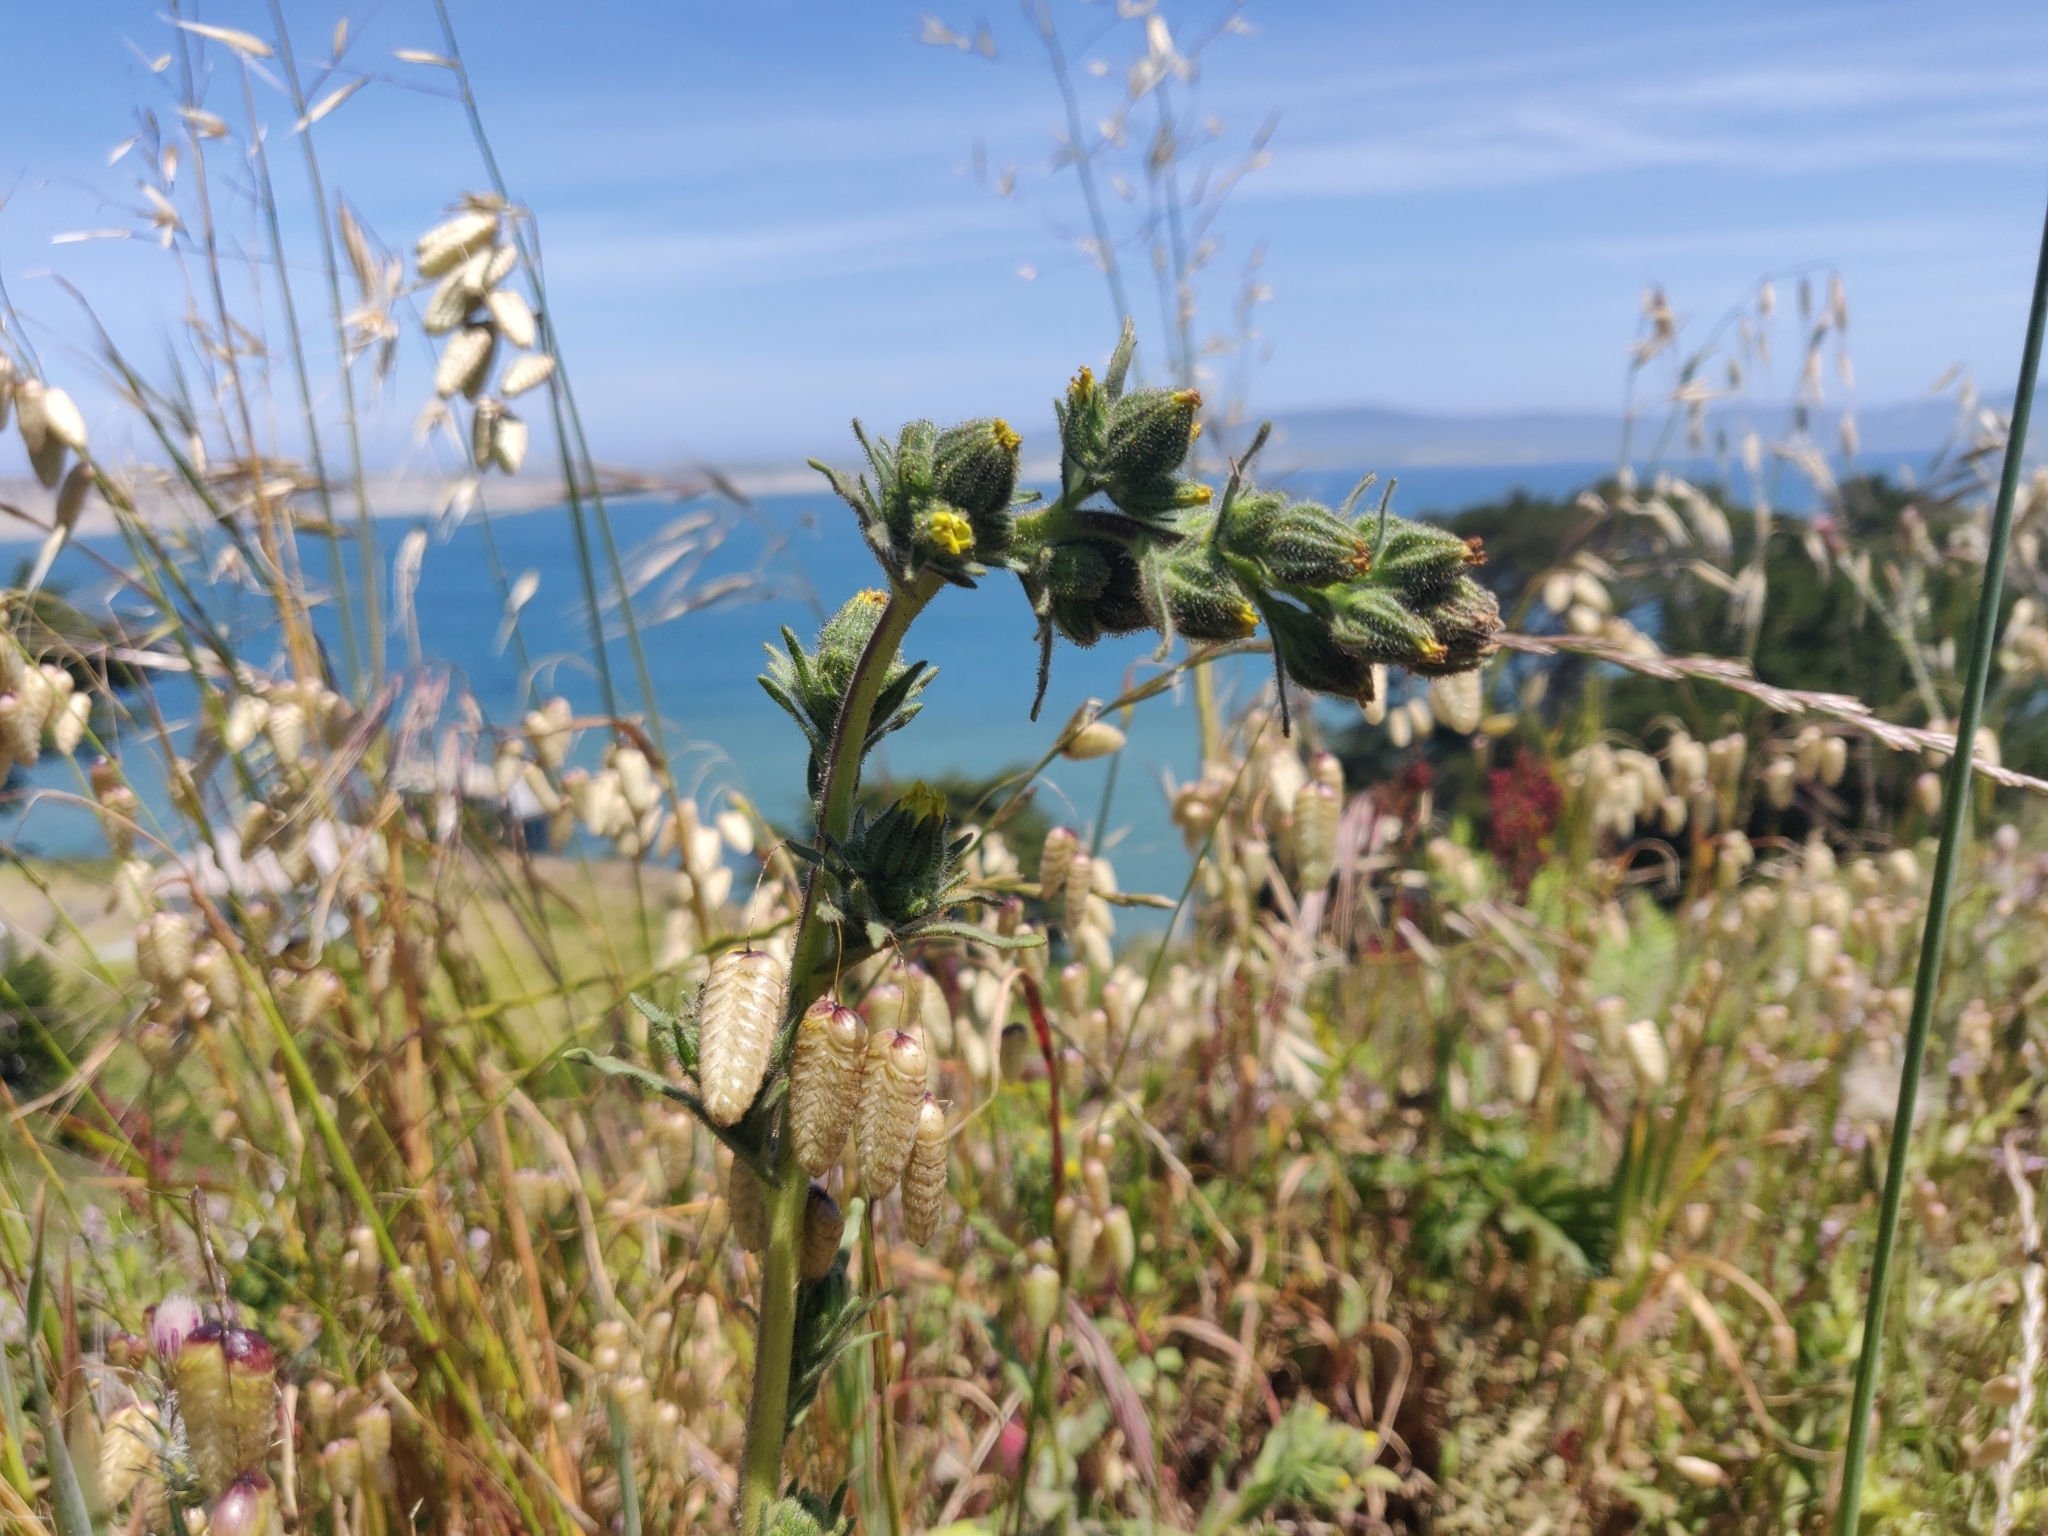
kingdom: Plantae
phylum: Tracheophyta
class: Magnoliopsida
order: Asterales
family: Asteraceae
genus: Madia
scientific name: Madia sativa
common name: Coast tarweed
